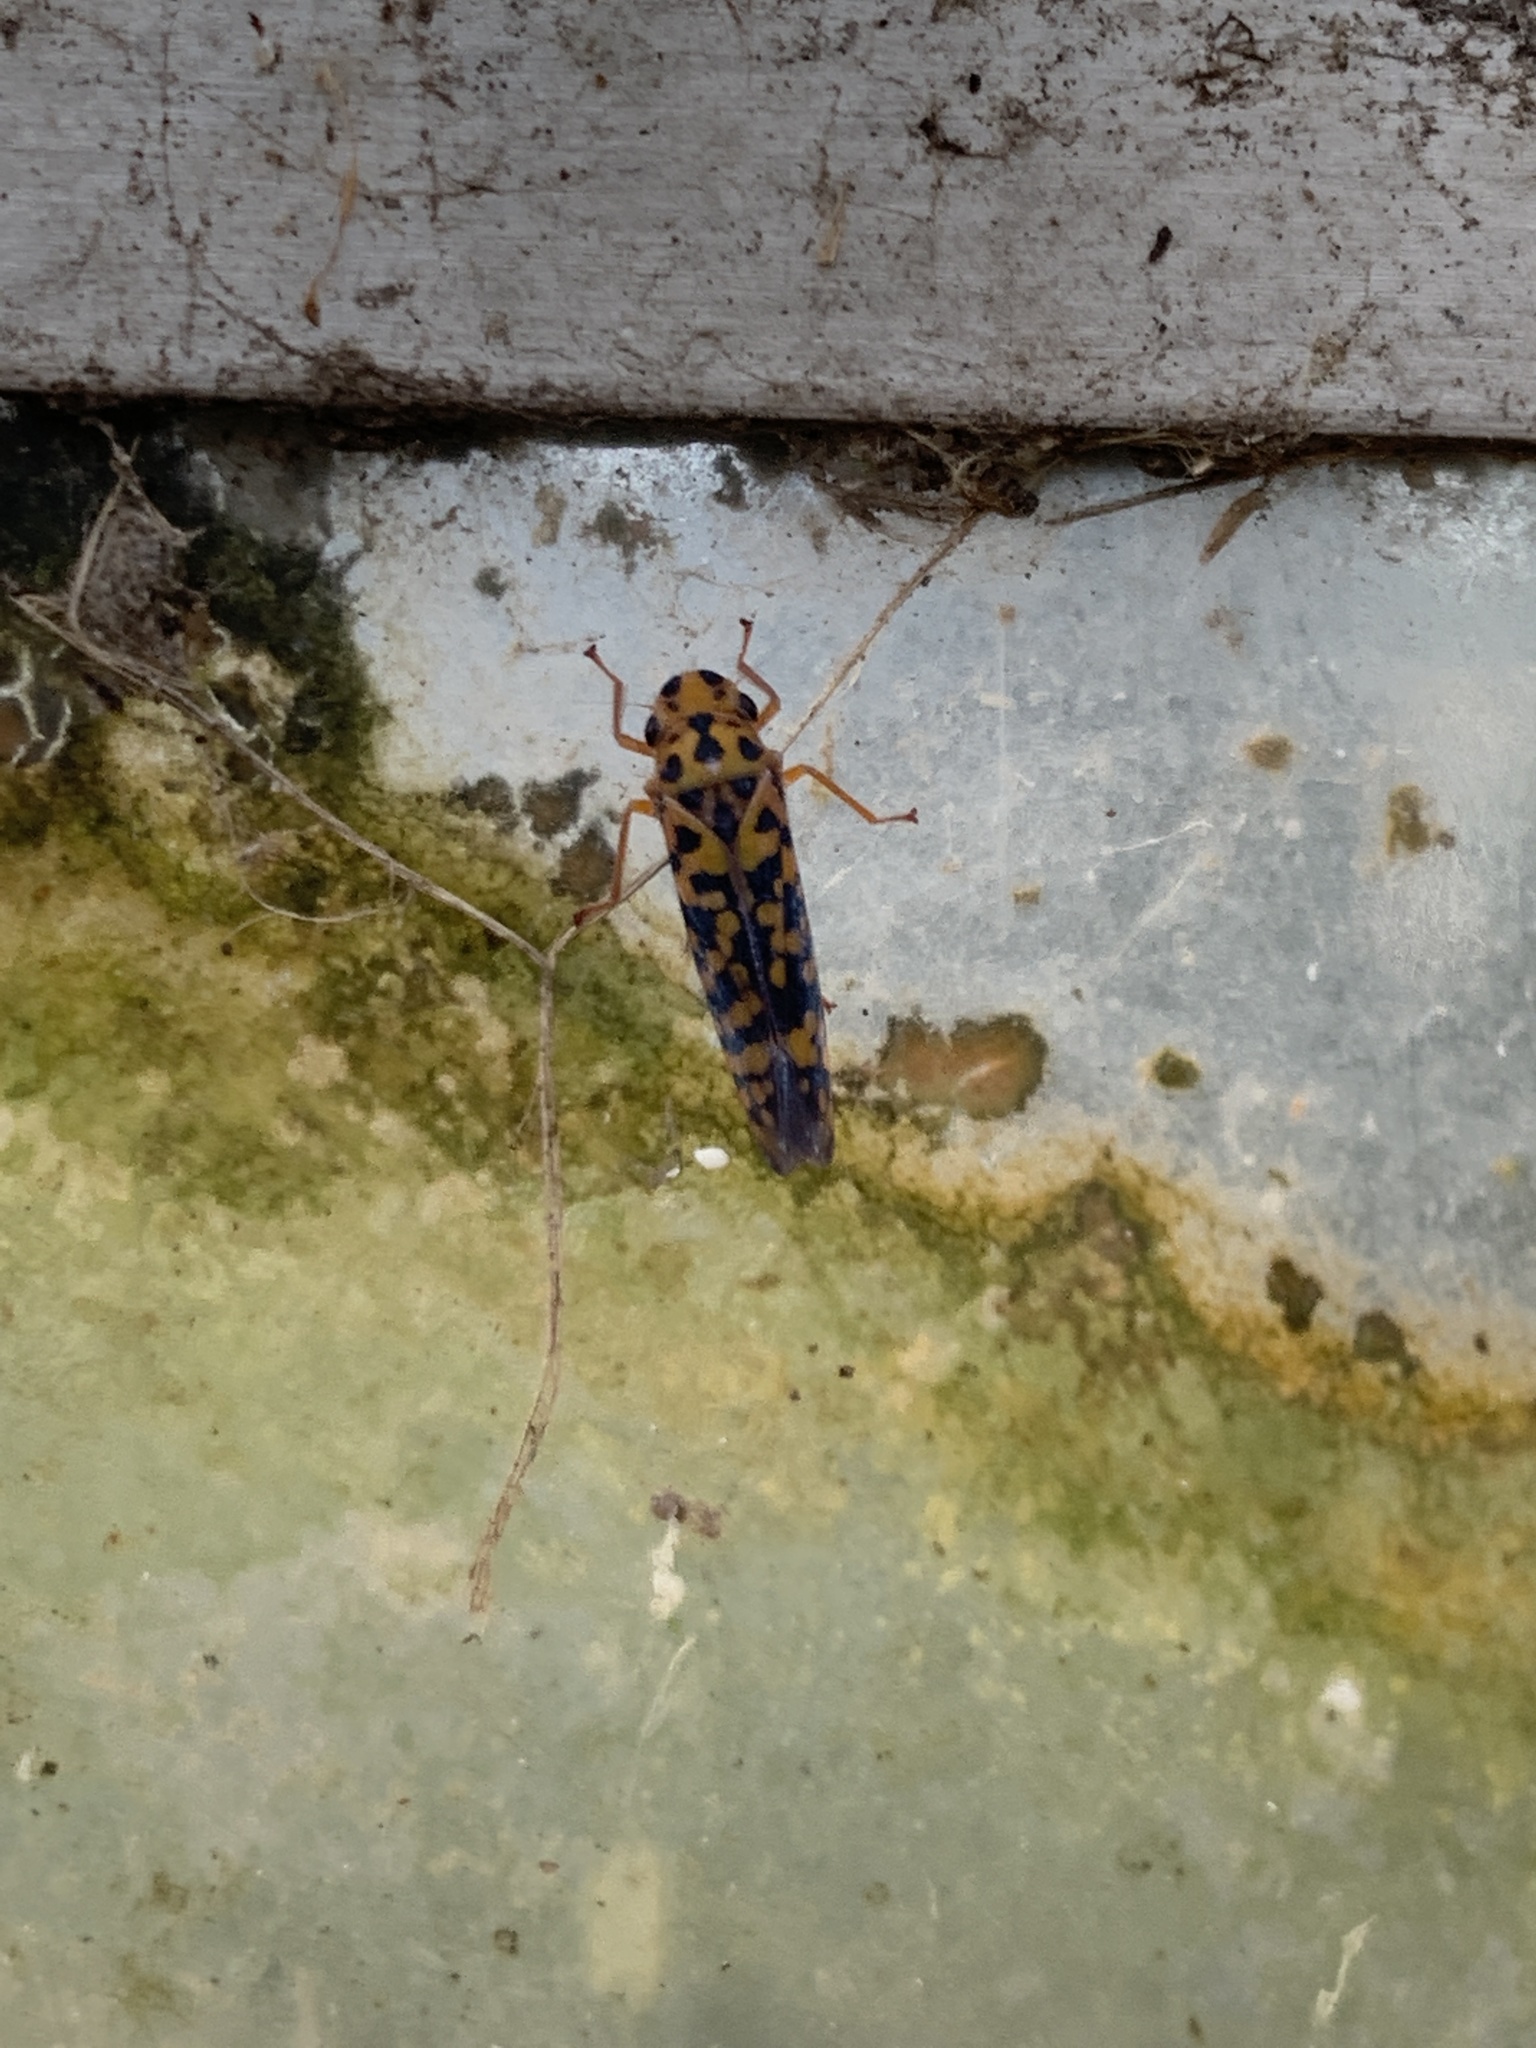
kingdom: Animalia
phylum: Arthropoda
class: Insecta
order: Hemiptera
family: Cicadellidae
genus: Pawiloma
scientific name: Pawiloma victima
